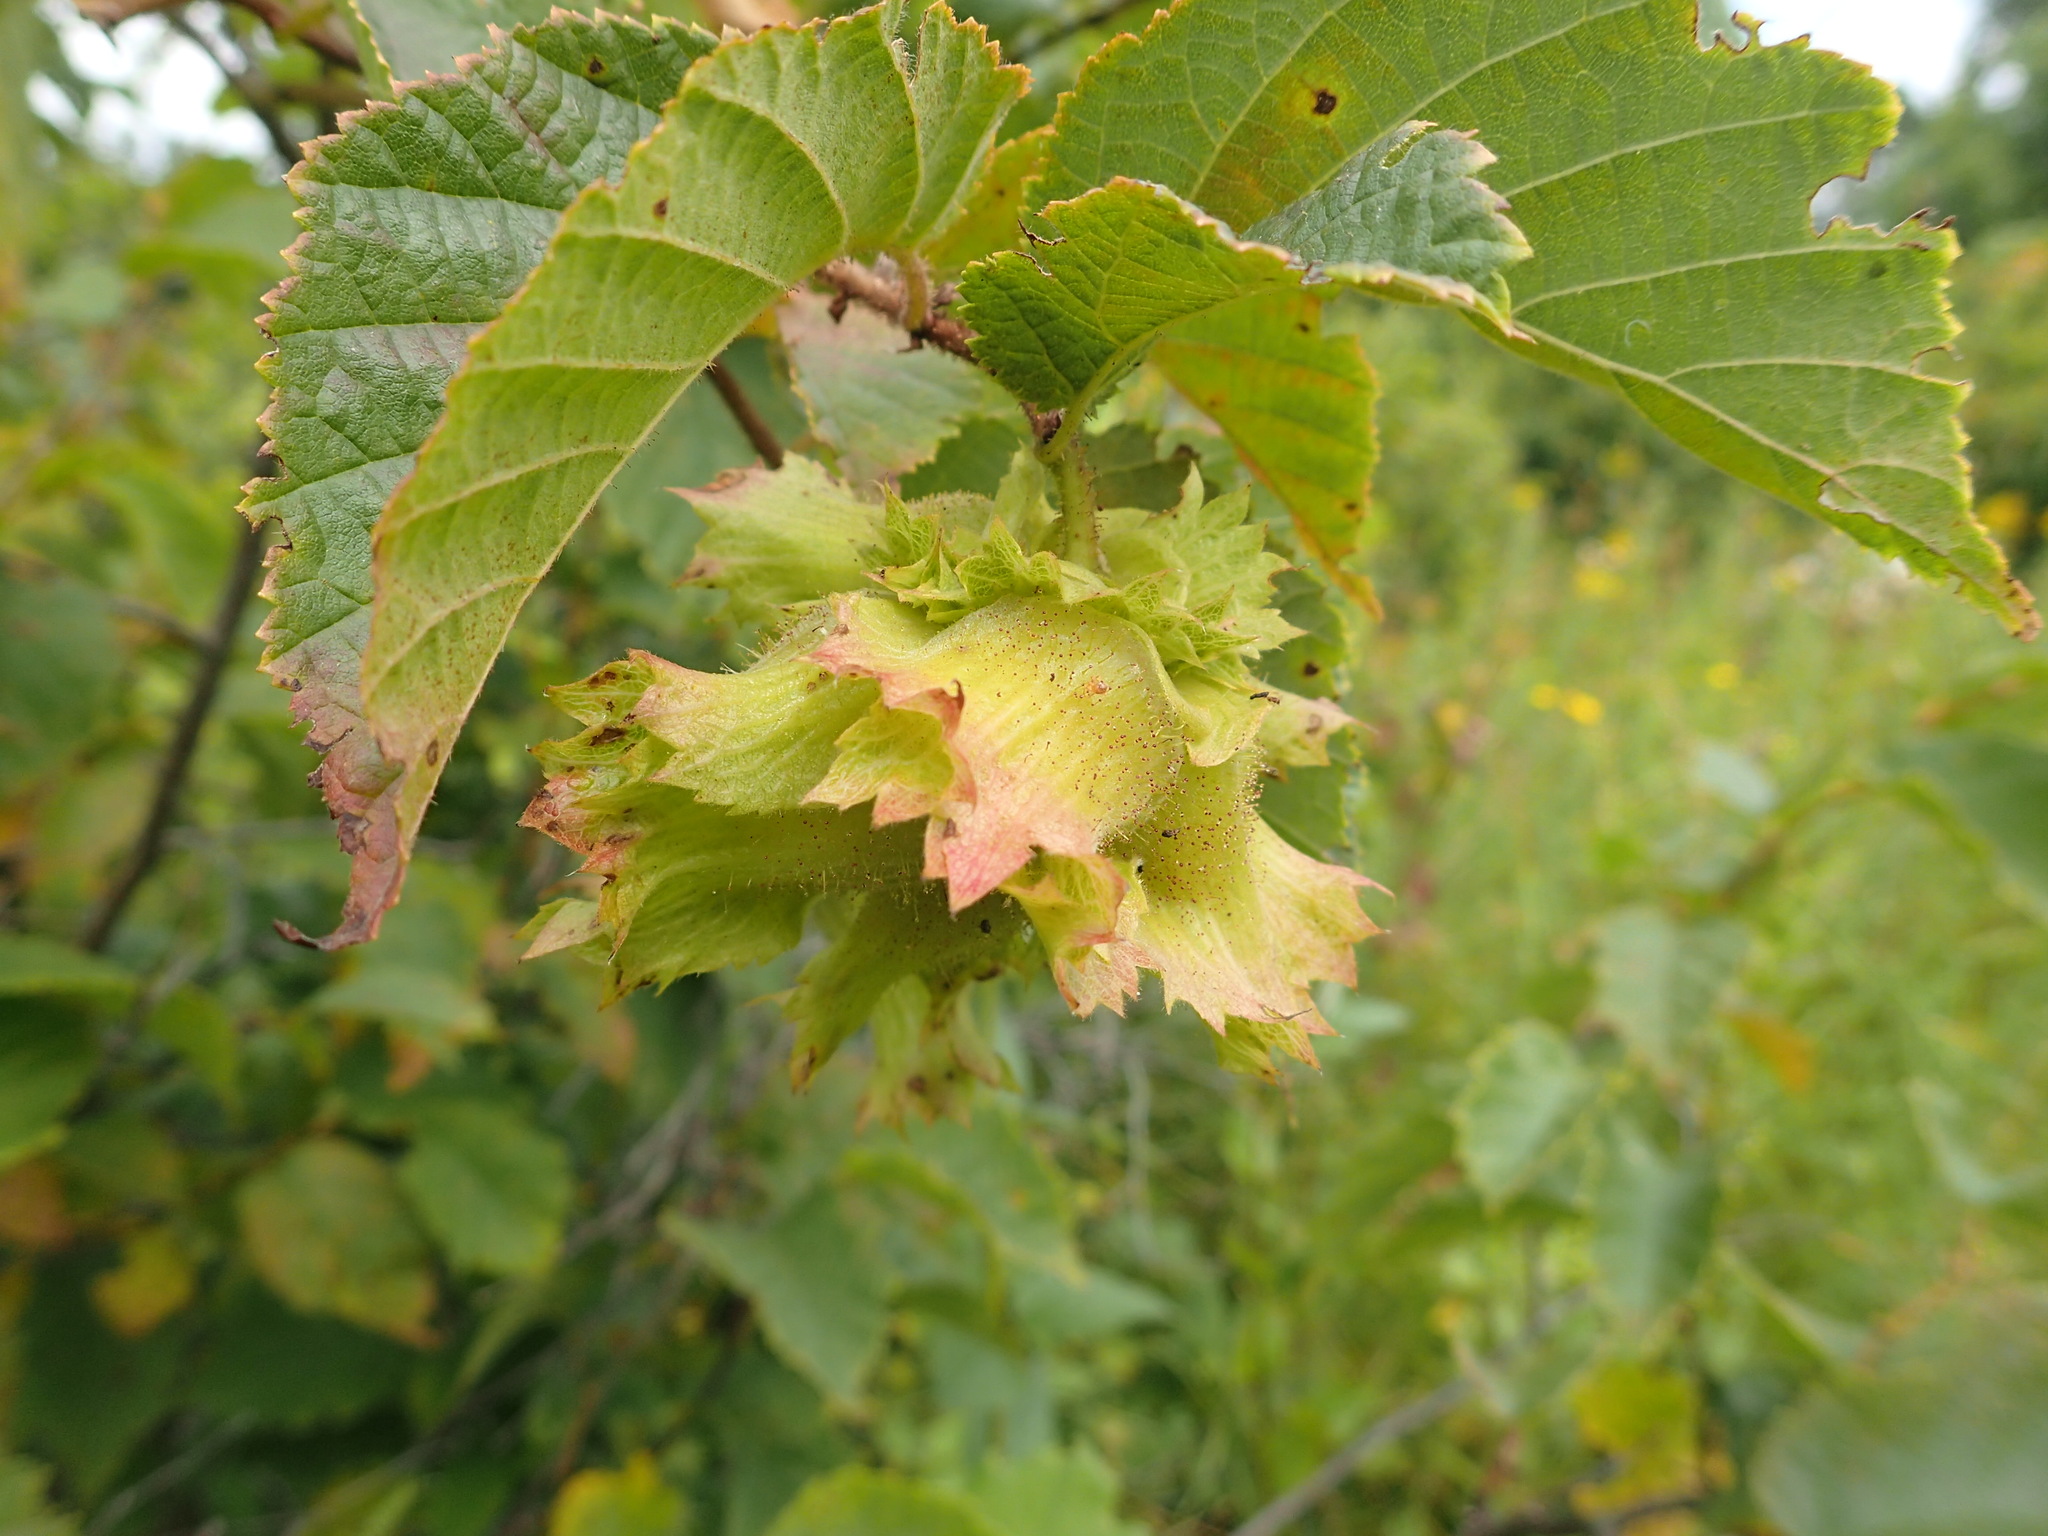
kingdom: Plantae
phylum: Tracheophyta
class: Magnoliopsida
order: Fagales
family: Betulaceae
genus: Corylus
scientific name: Corylus americana
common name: American hazel
